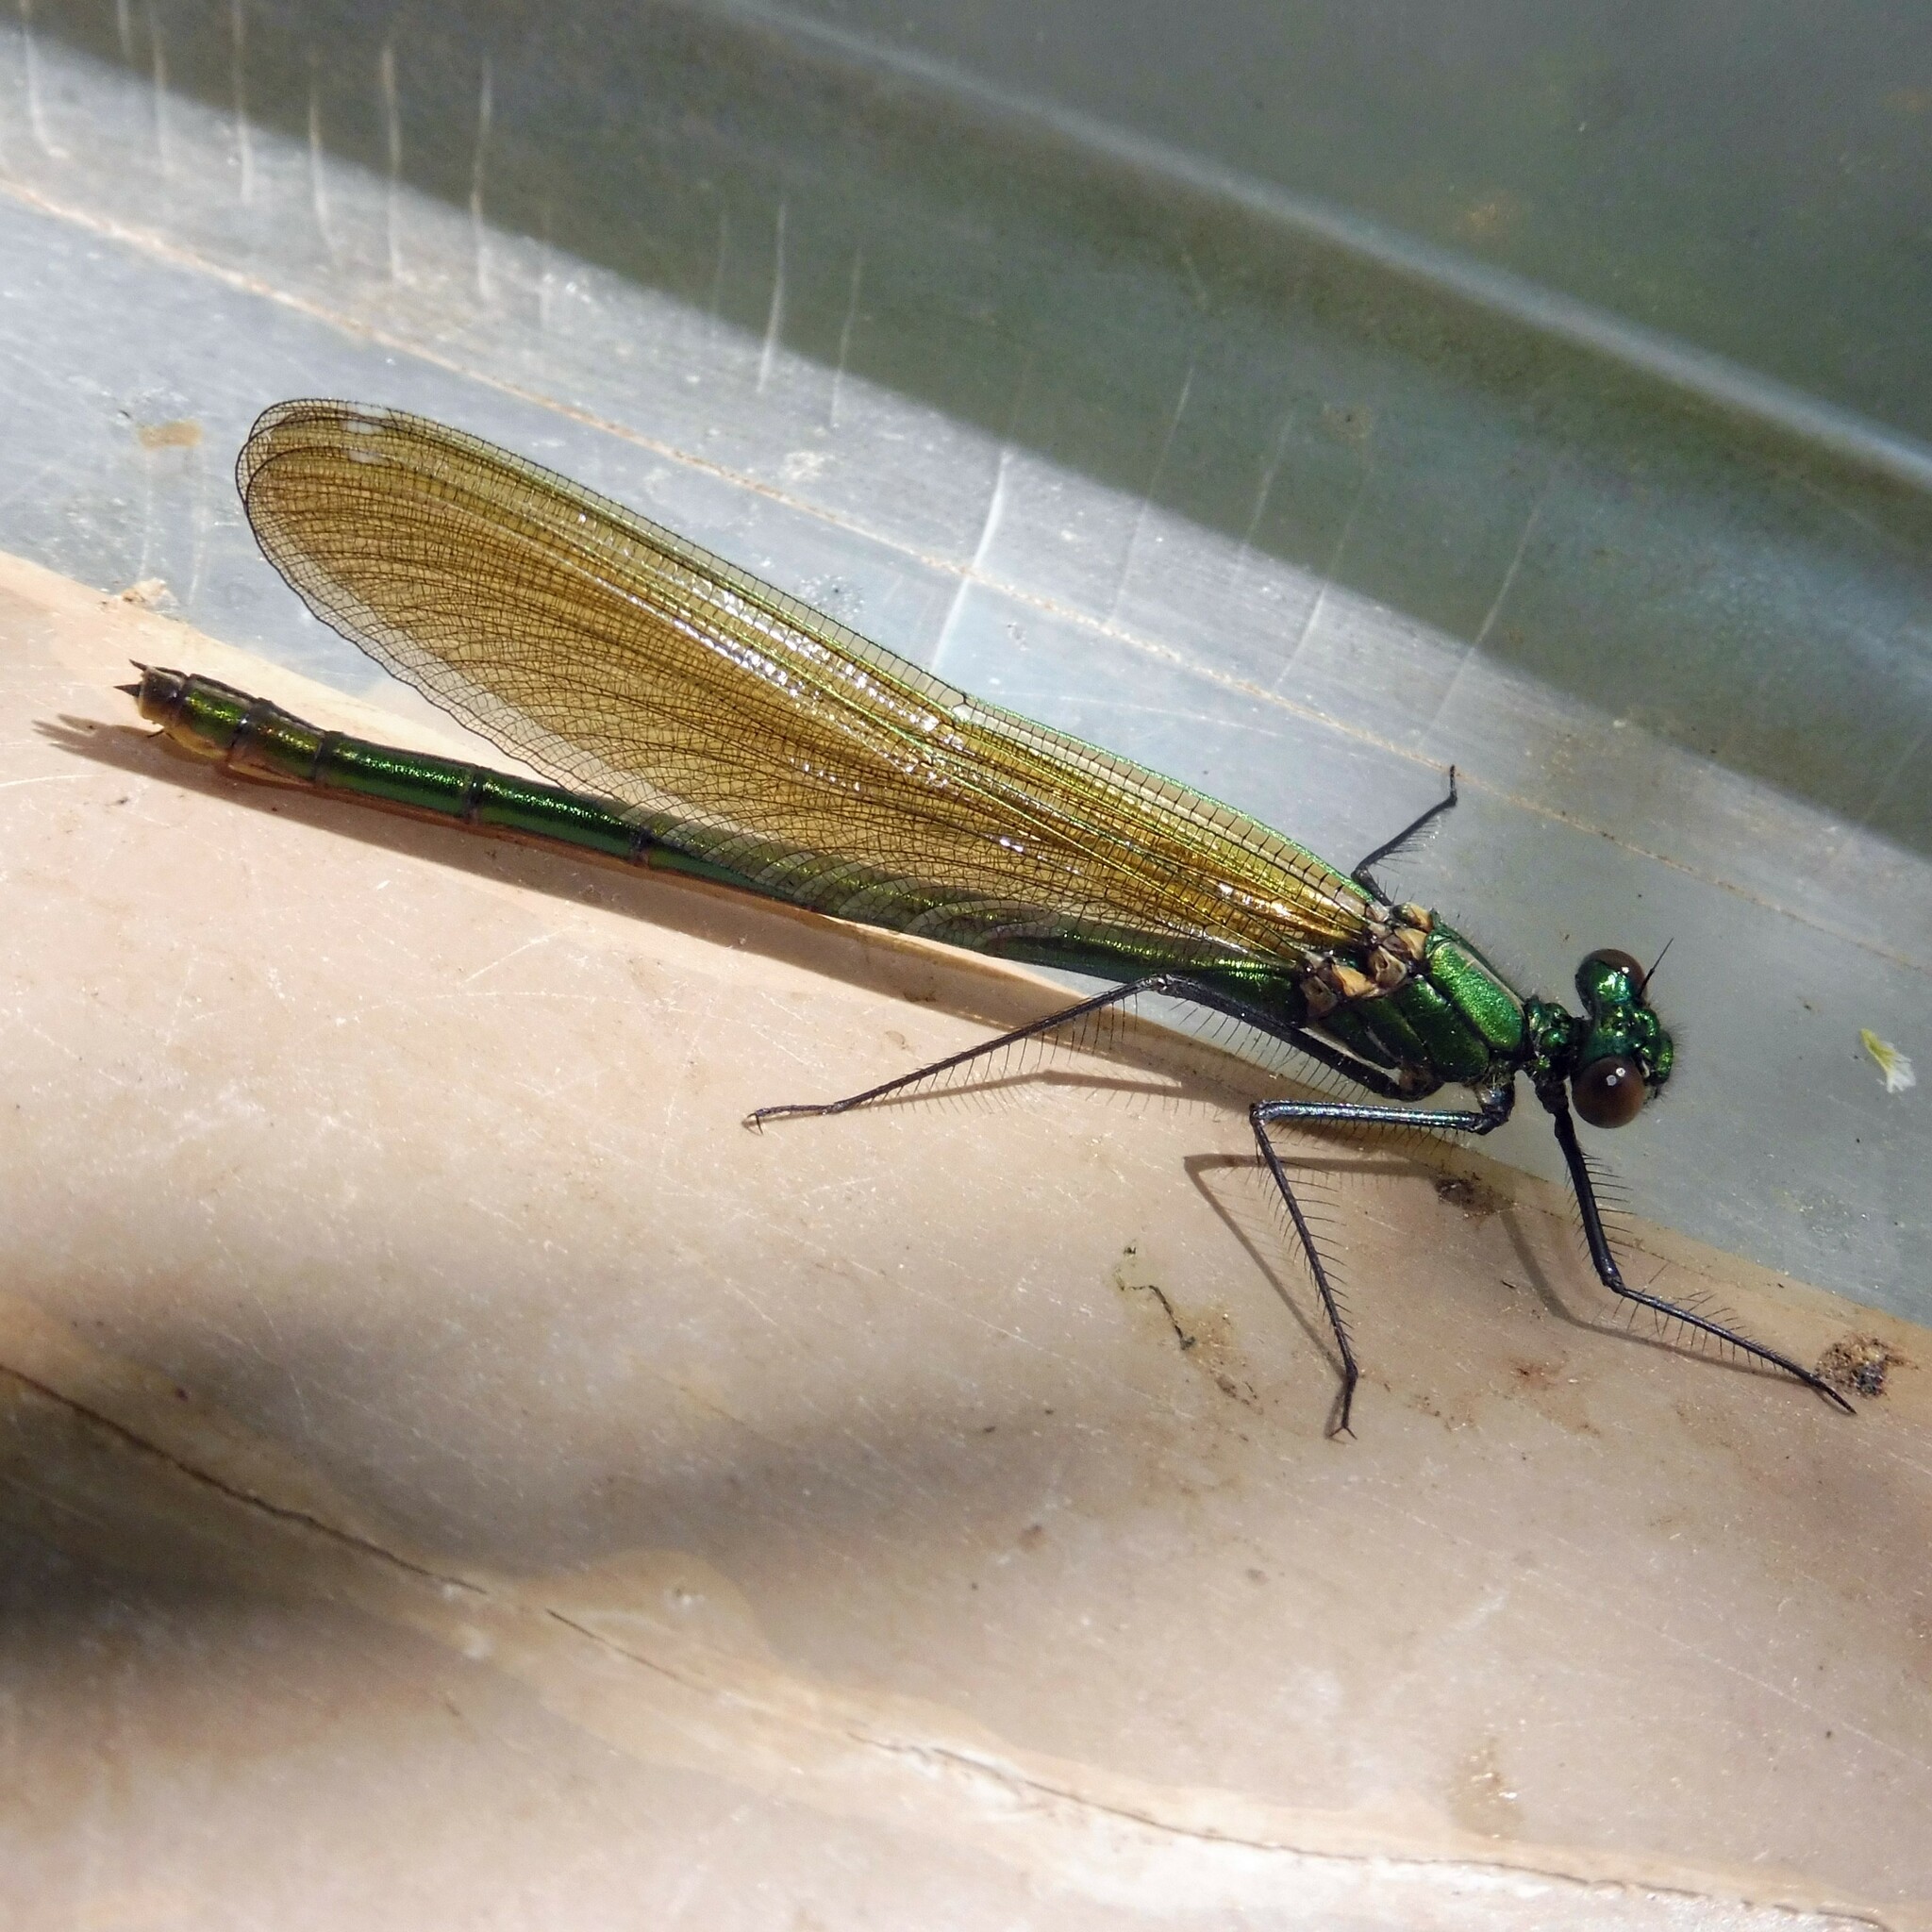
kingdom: Animalia
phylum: Arthropoda
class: Insecta
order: Odonata
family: Calopterygidae
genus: Calopteryx
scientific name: Calopteryx splendens
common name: Banded demoiselle
